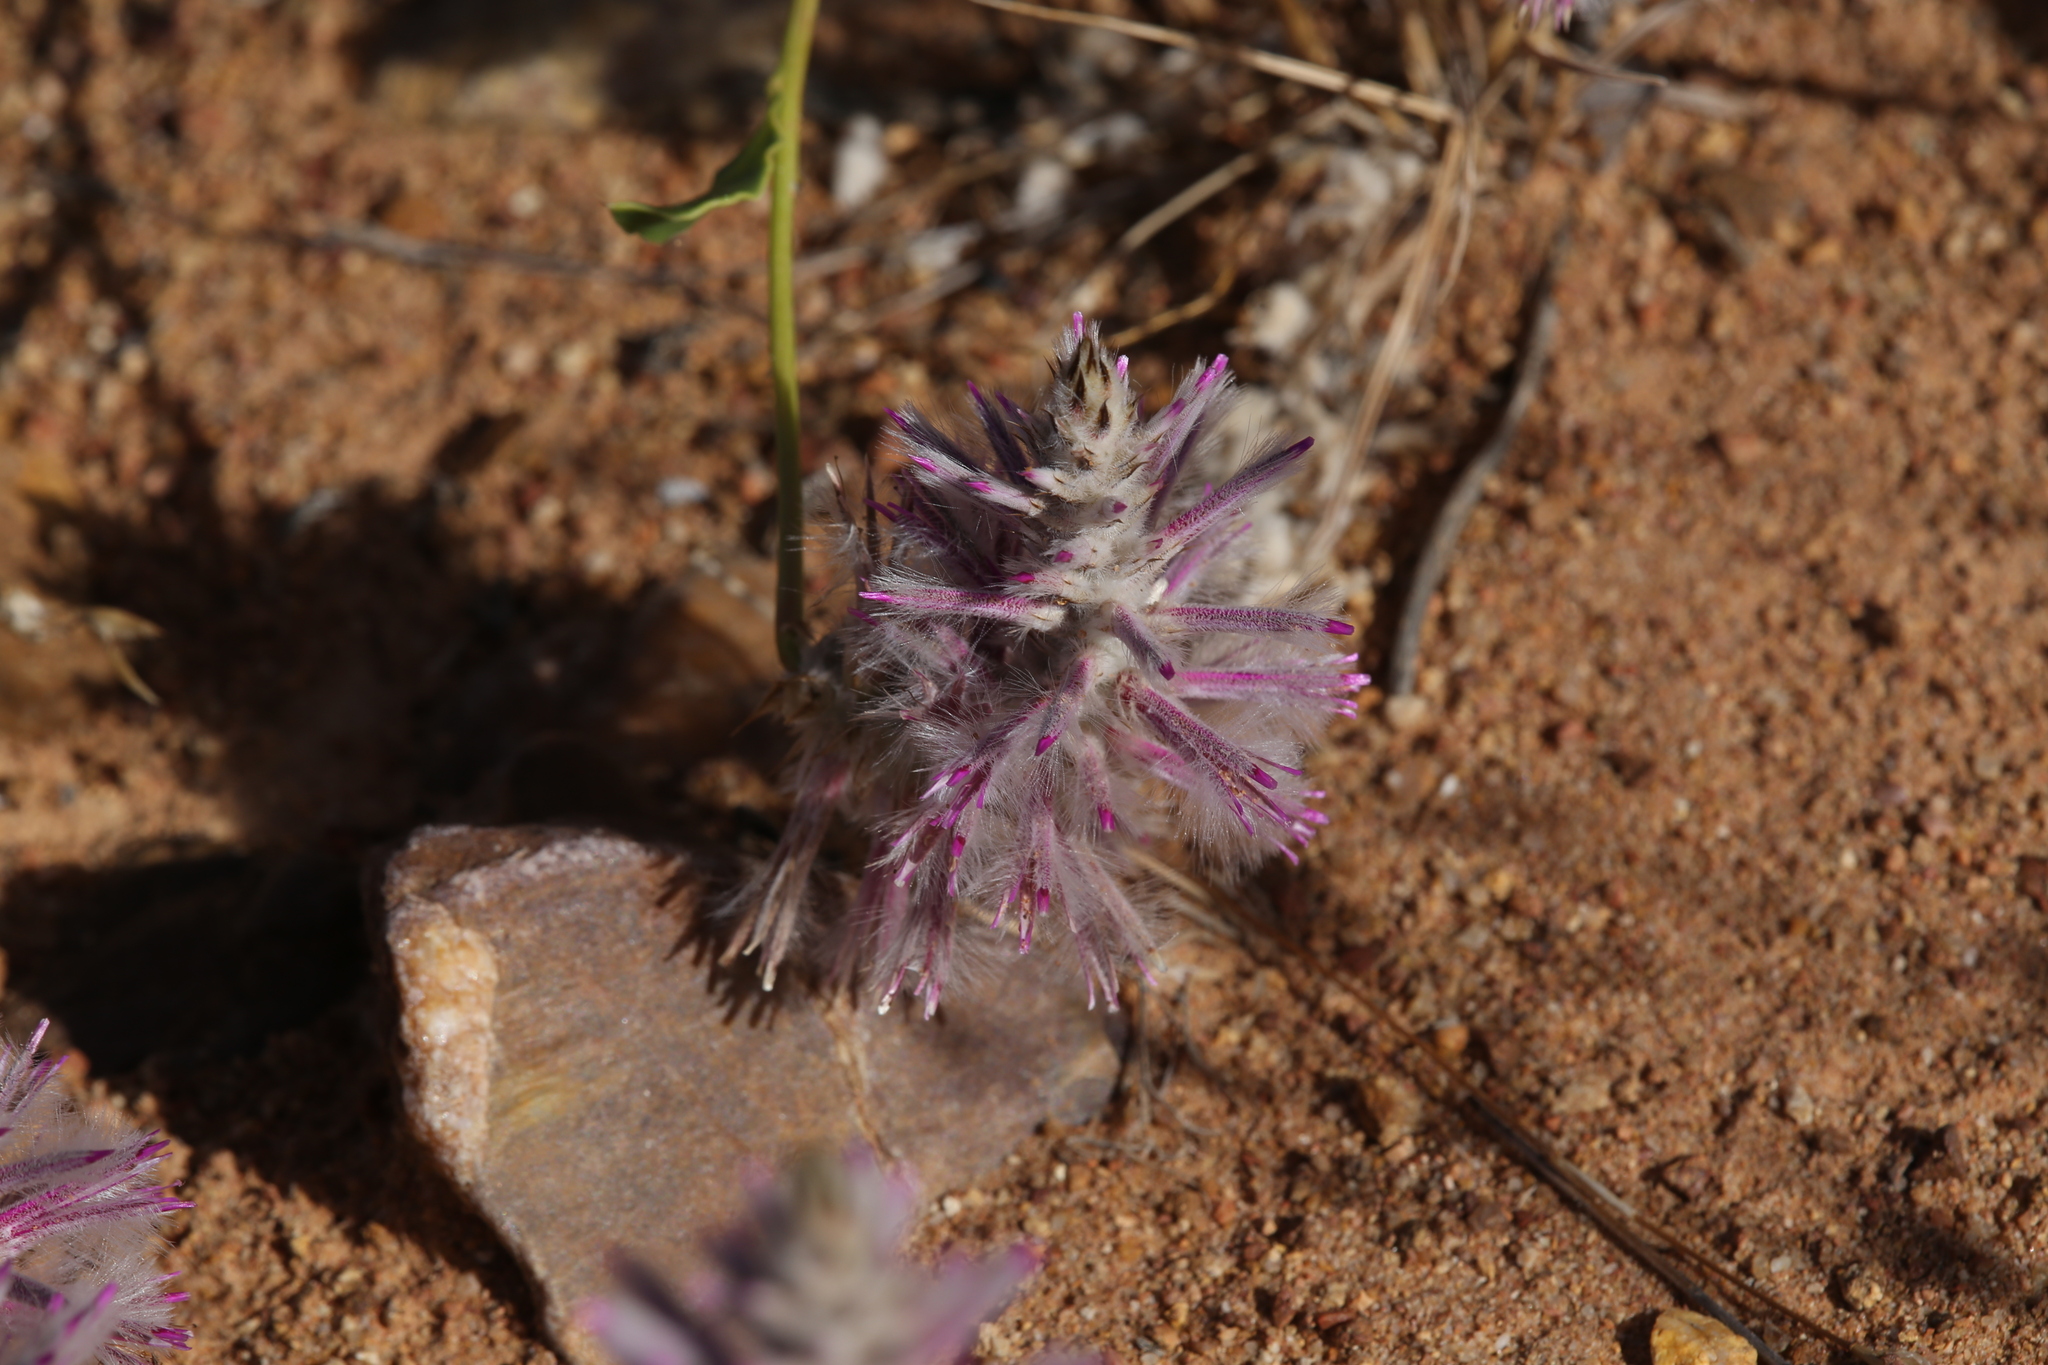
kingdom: Plantae
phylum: Tracheophyta
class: Magnoliopsida
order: Caryophyllales
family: Amaranthaceae
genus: Ptilotus
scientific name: Ptilotus exaltatus
